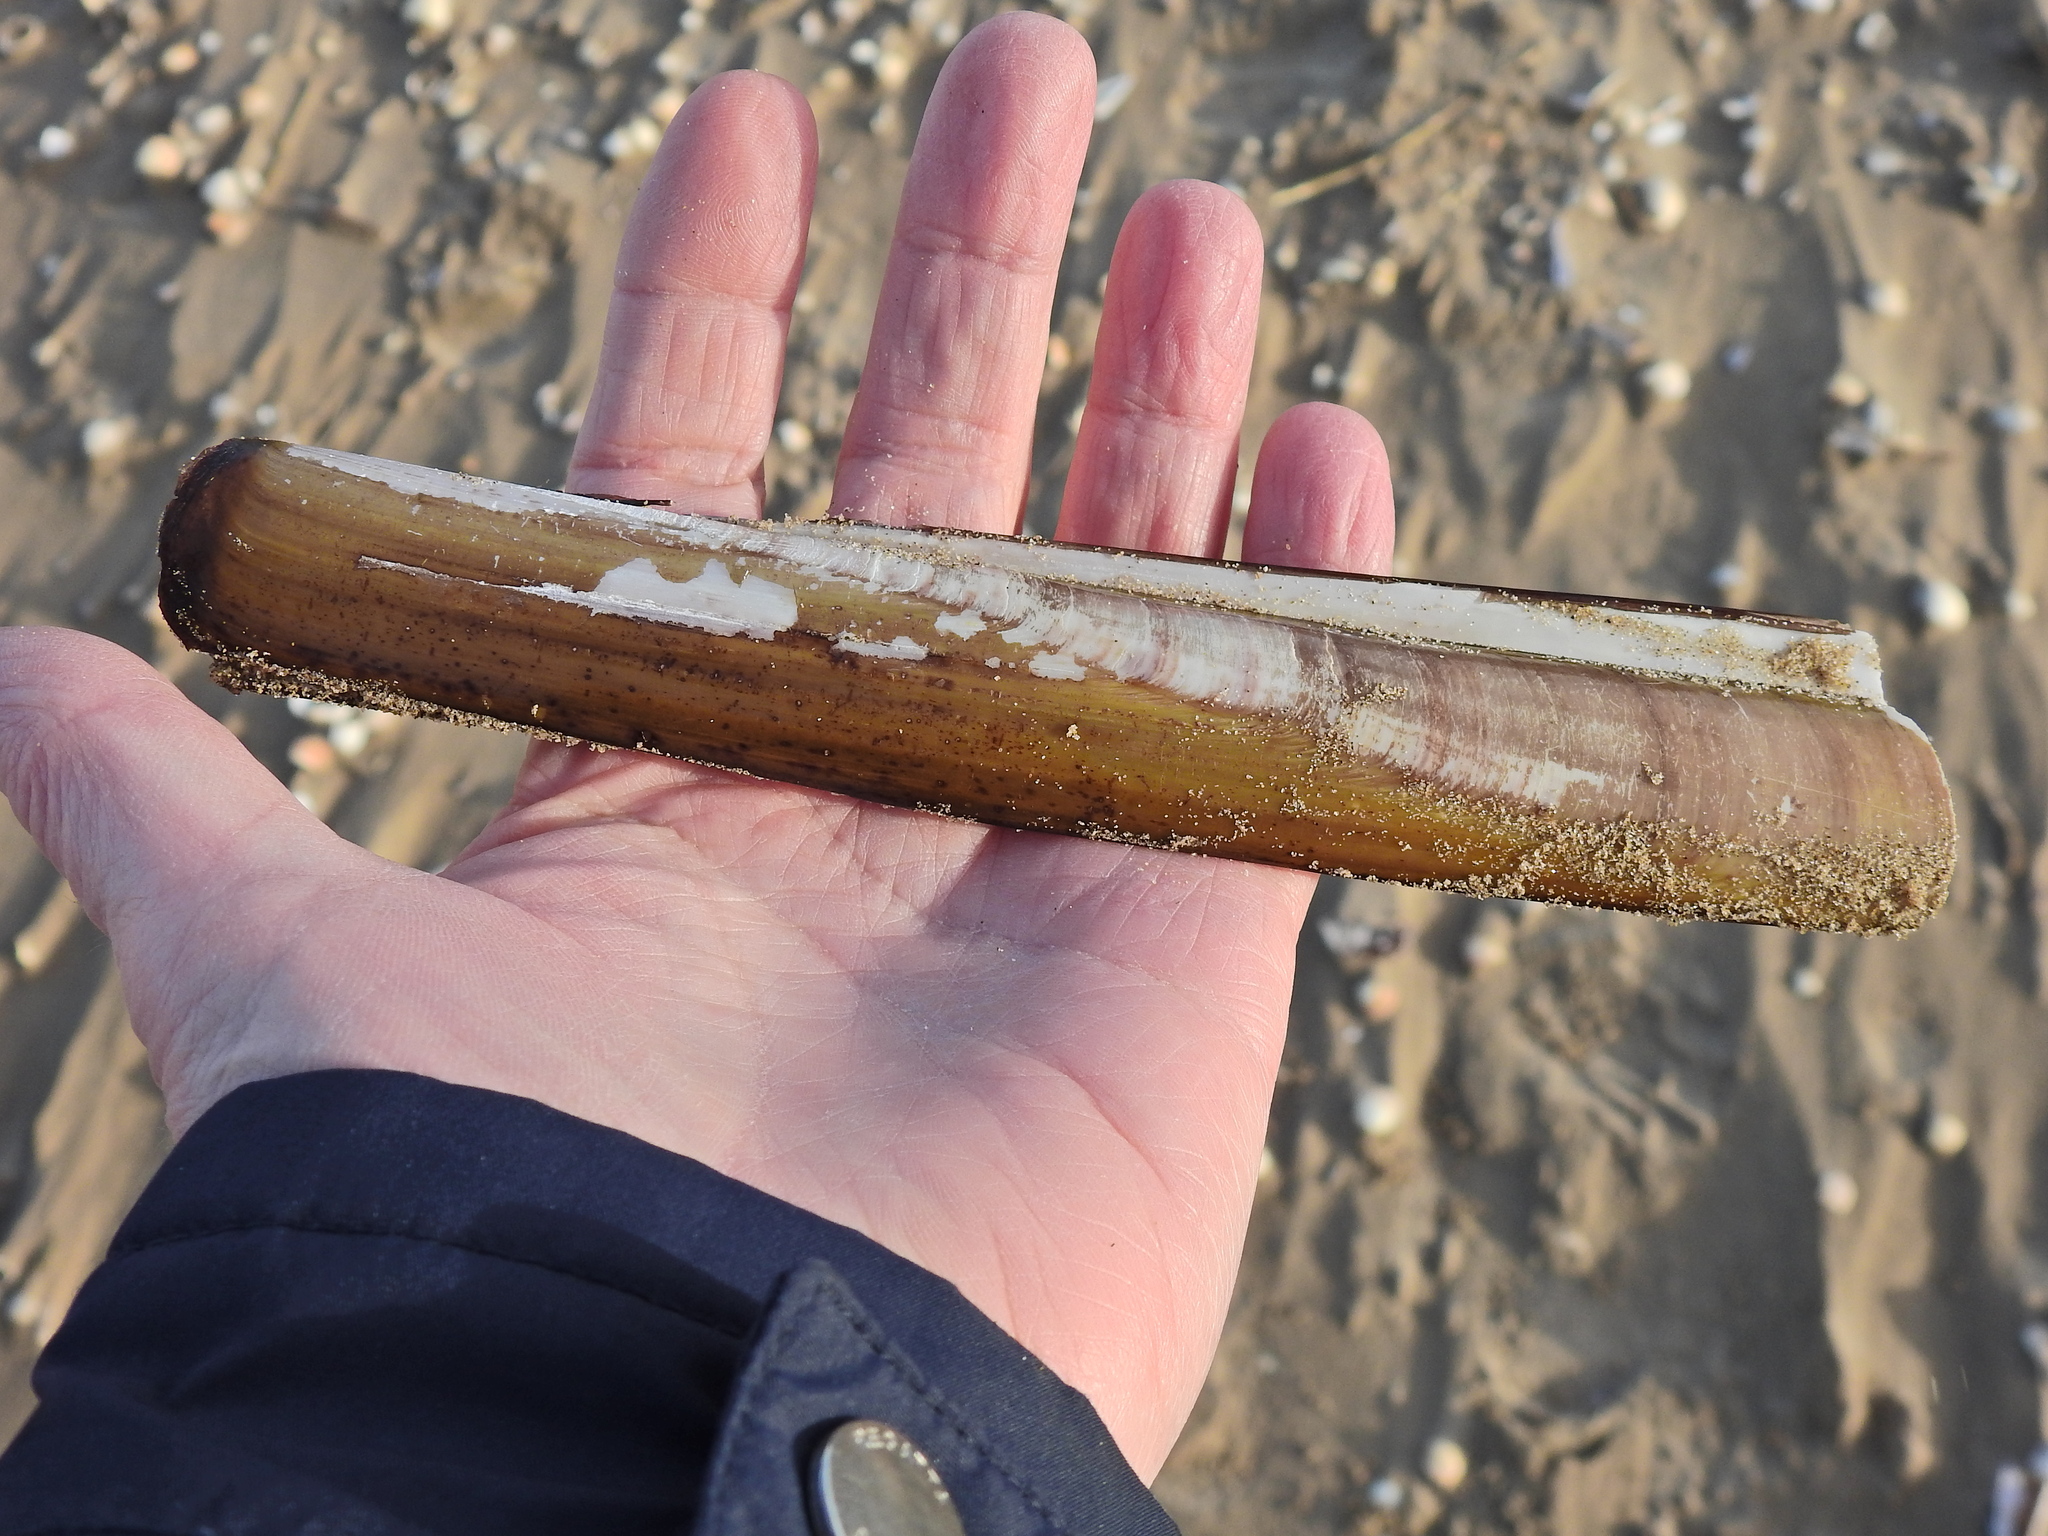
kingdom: Animalia
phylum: Mollusca
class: Bivalvia
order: Adapedonta
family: Pharidae
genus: Ensis
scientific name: Ensis siliqua
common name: Pod razor shell
